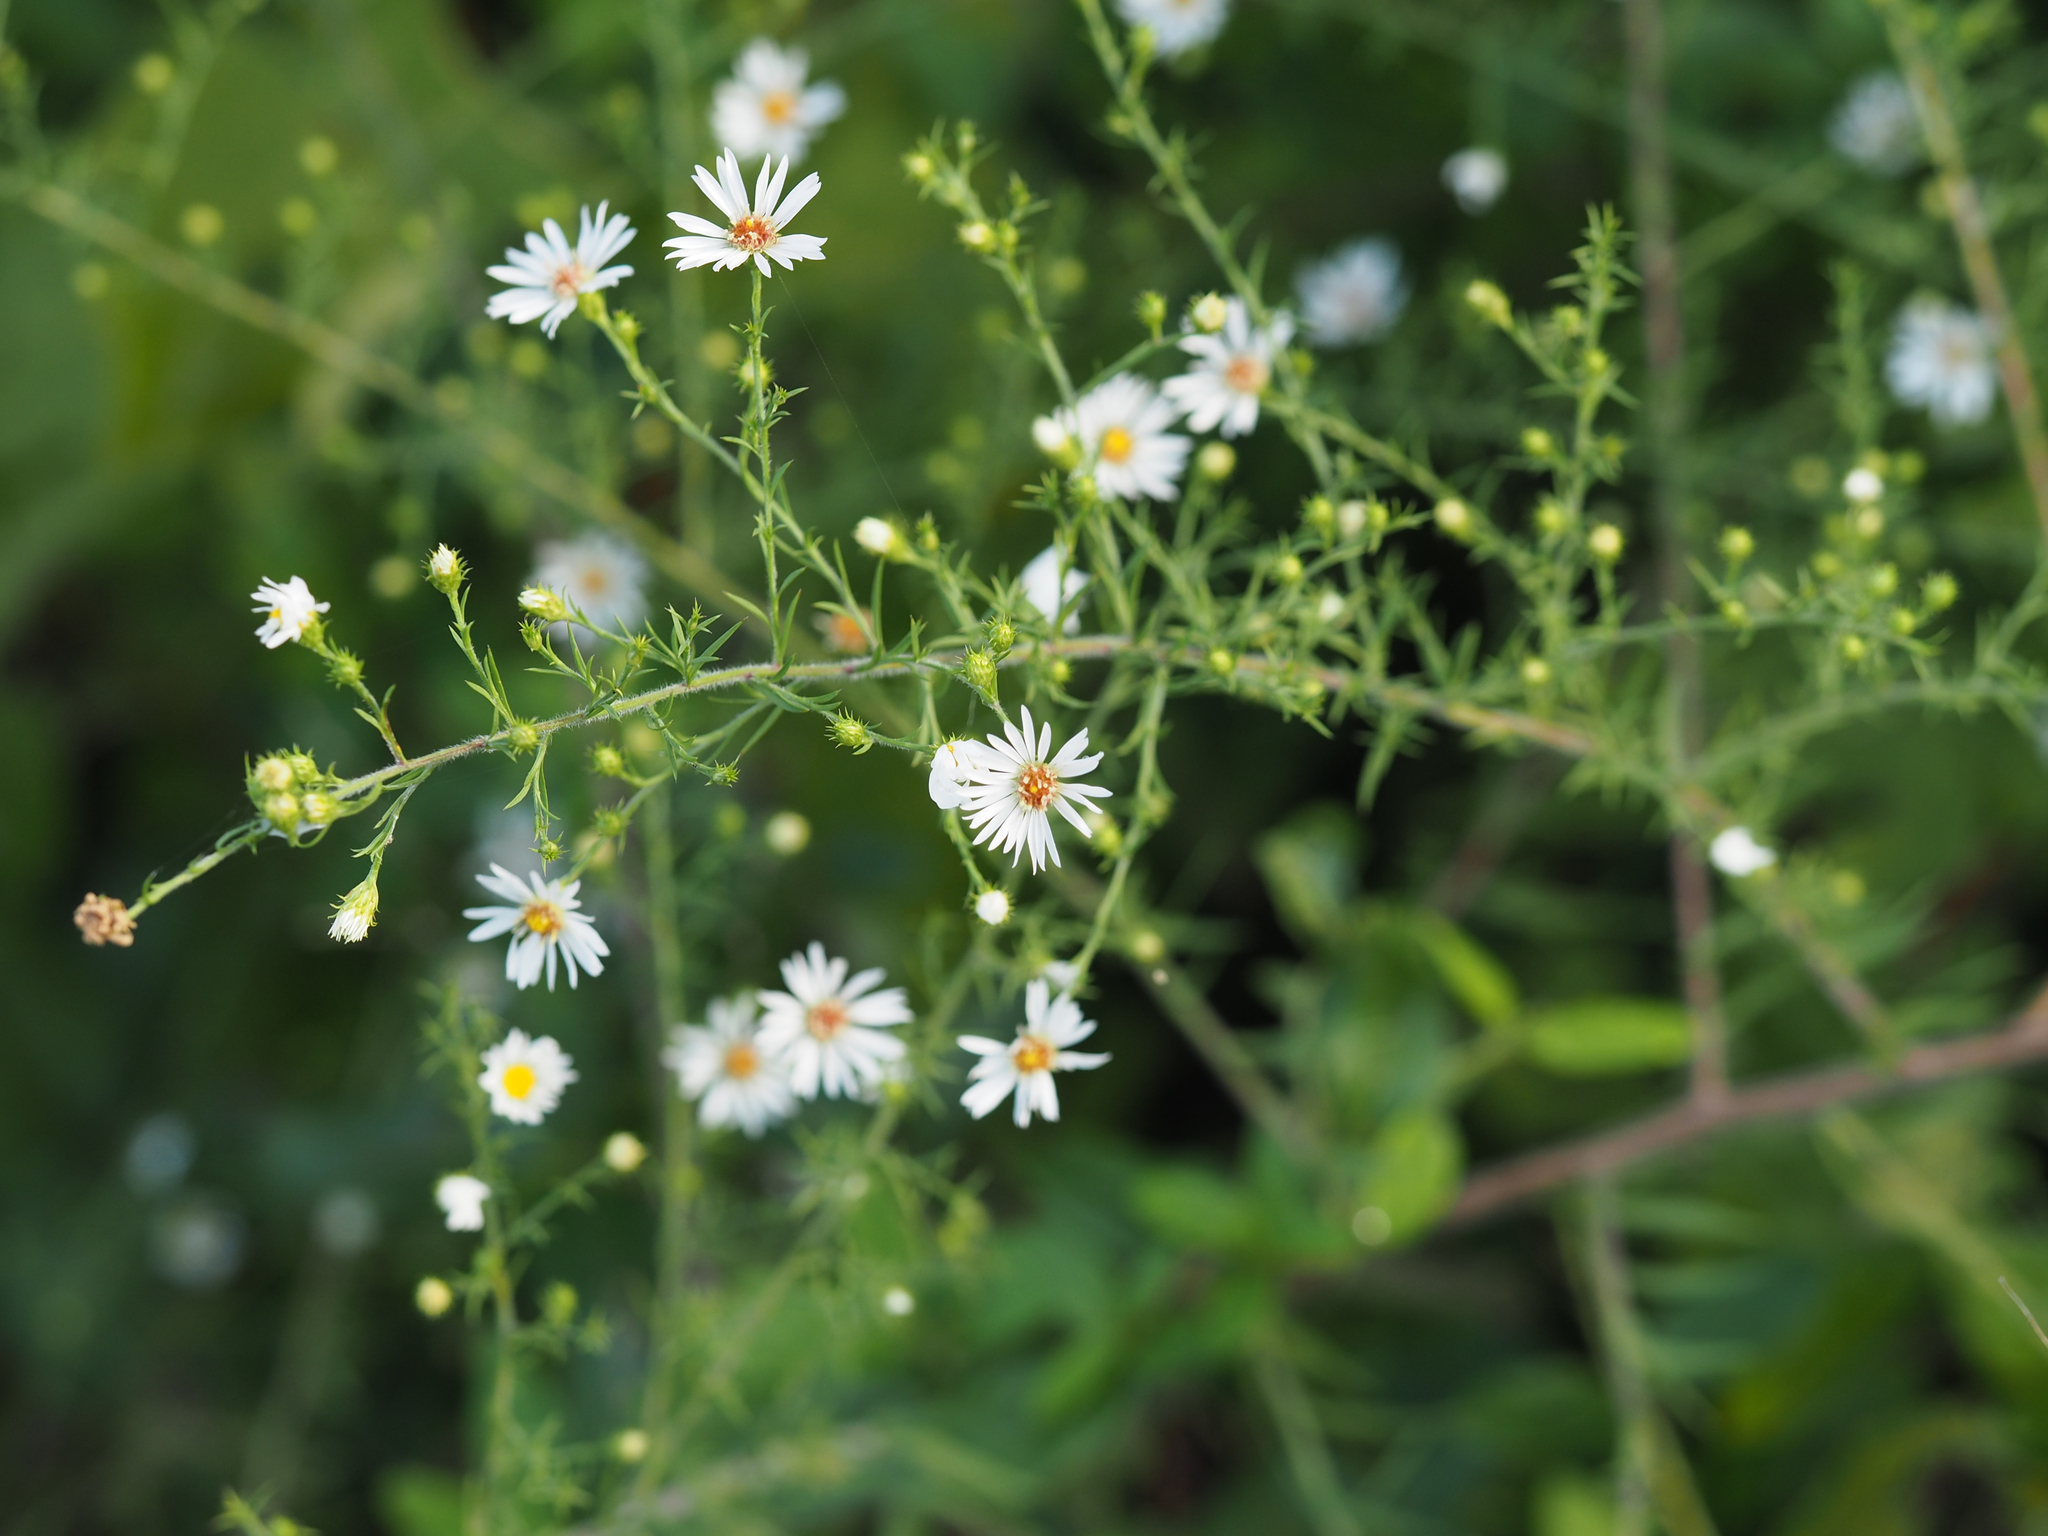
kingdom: Plantae
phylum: Tracheophyta
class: Magnoliopsida
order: Asterales
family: Asteraceae
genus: Symphyotrichum
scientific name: Symphyotrichum pilosum
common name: Awl aster
